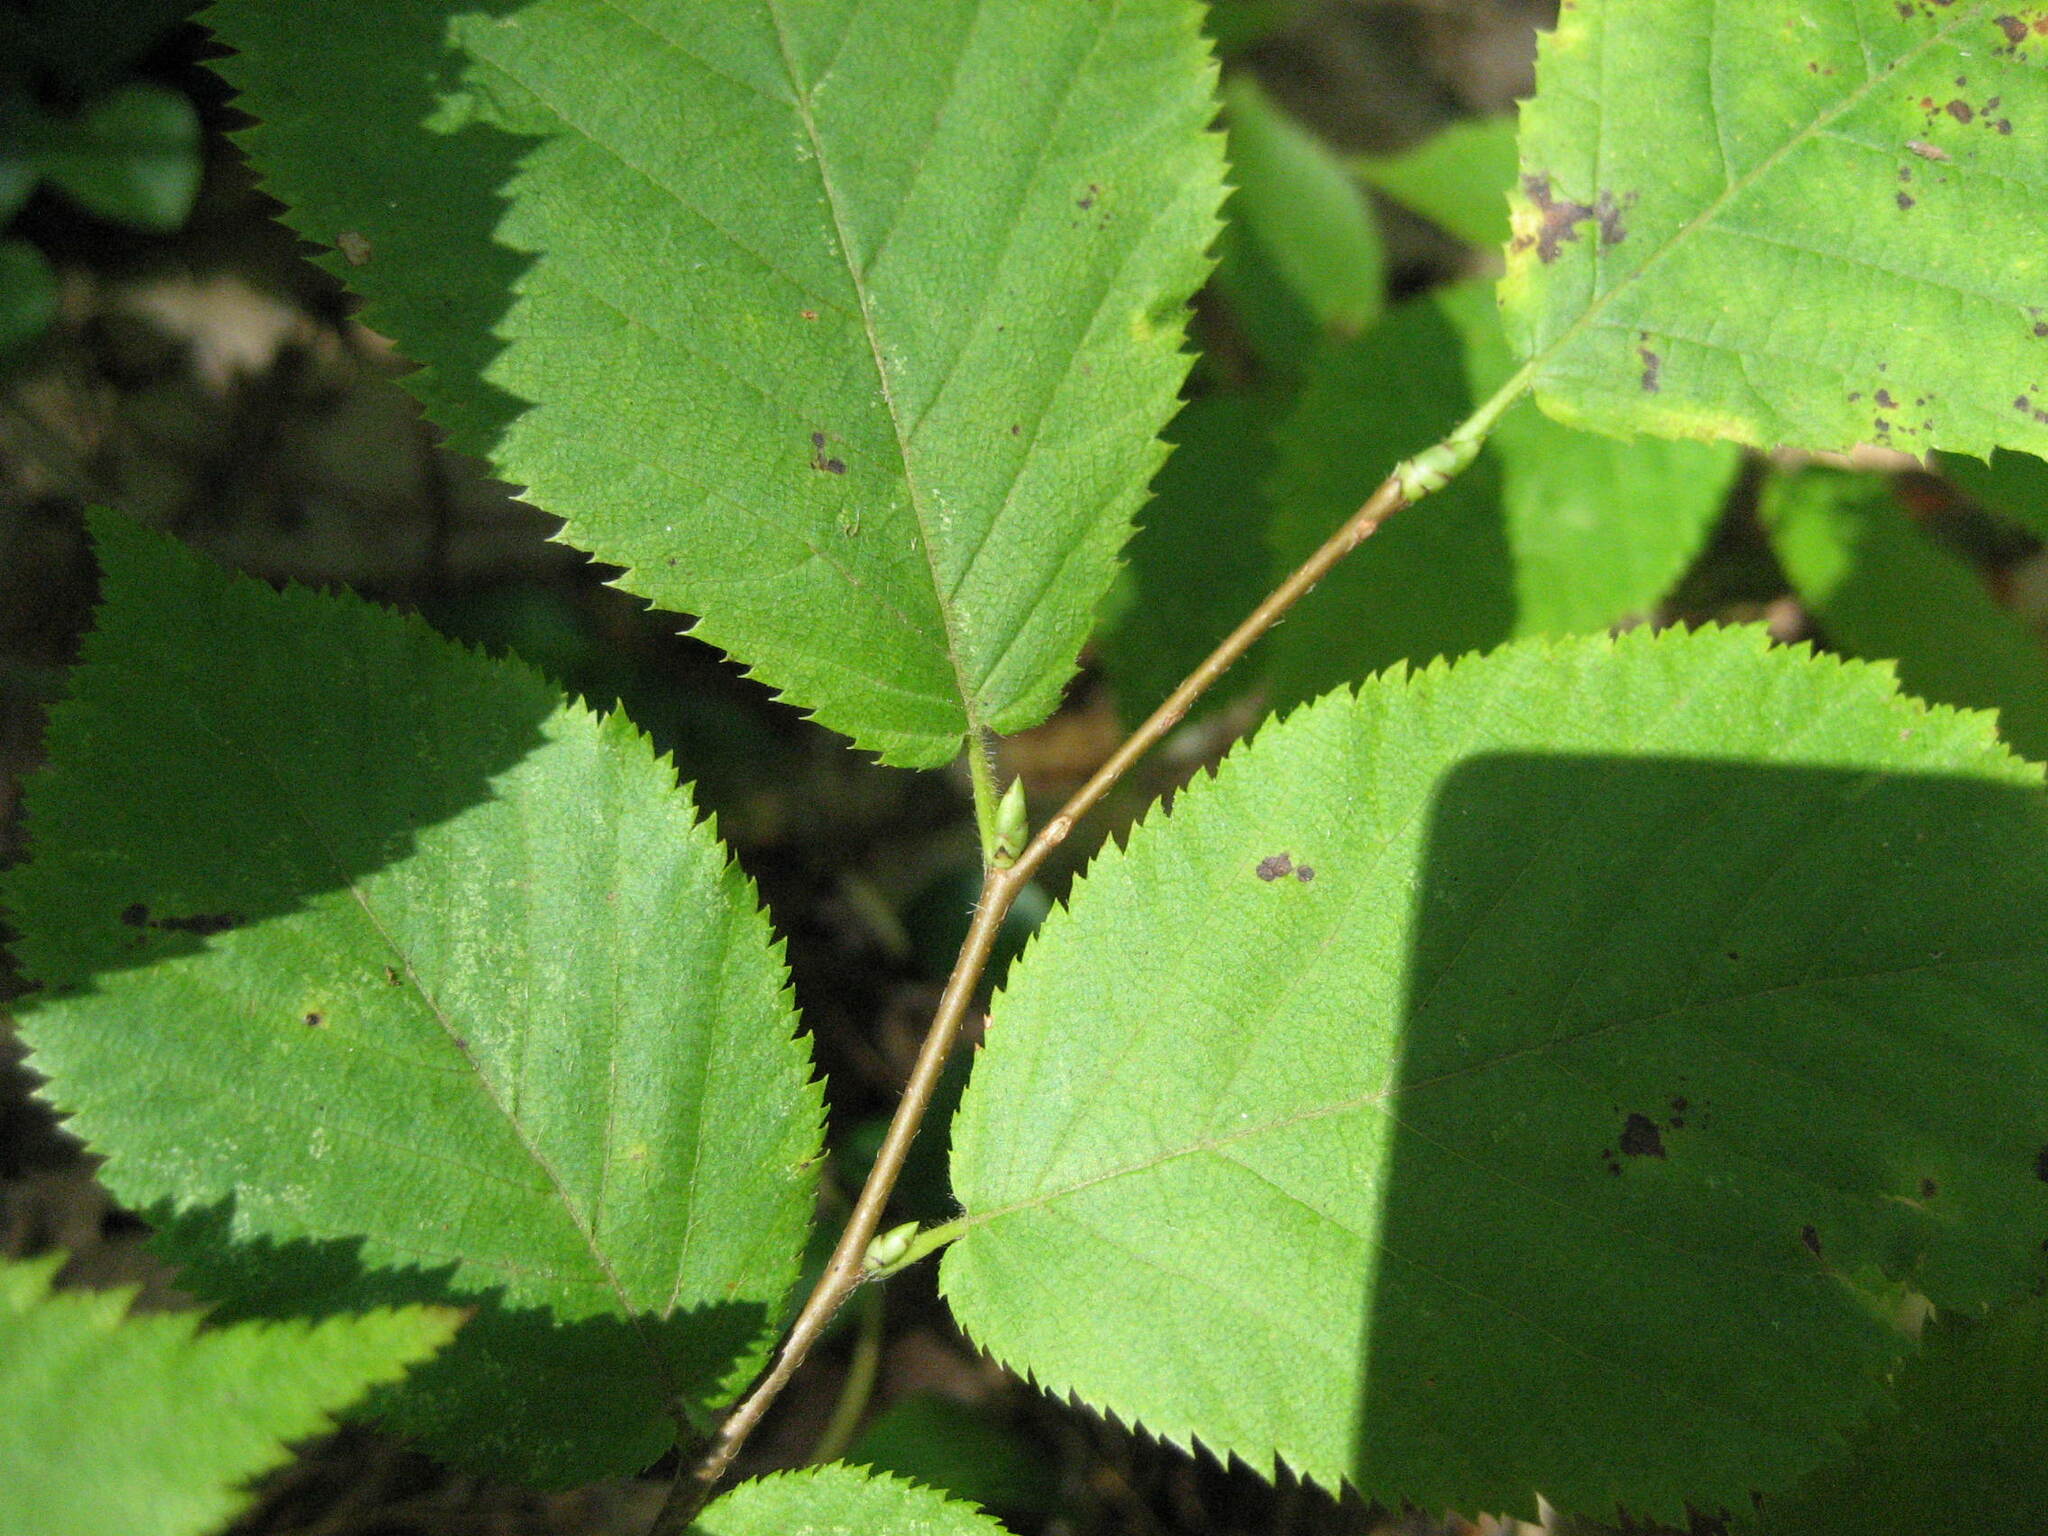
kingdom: Plantae
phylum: Tracheophyta
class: Magnoliopsida
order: Fagales
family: Betulaceae
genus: Ostrya
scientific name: Ostrya virginiana
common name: Ironwood
